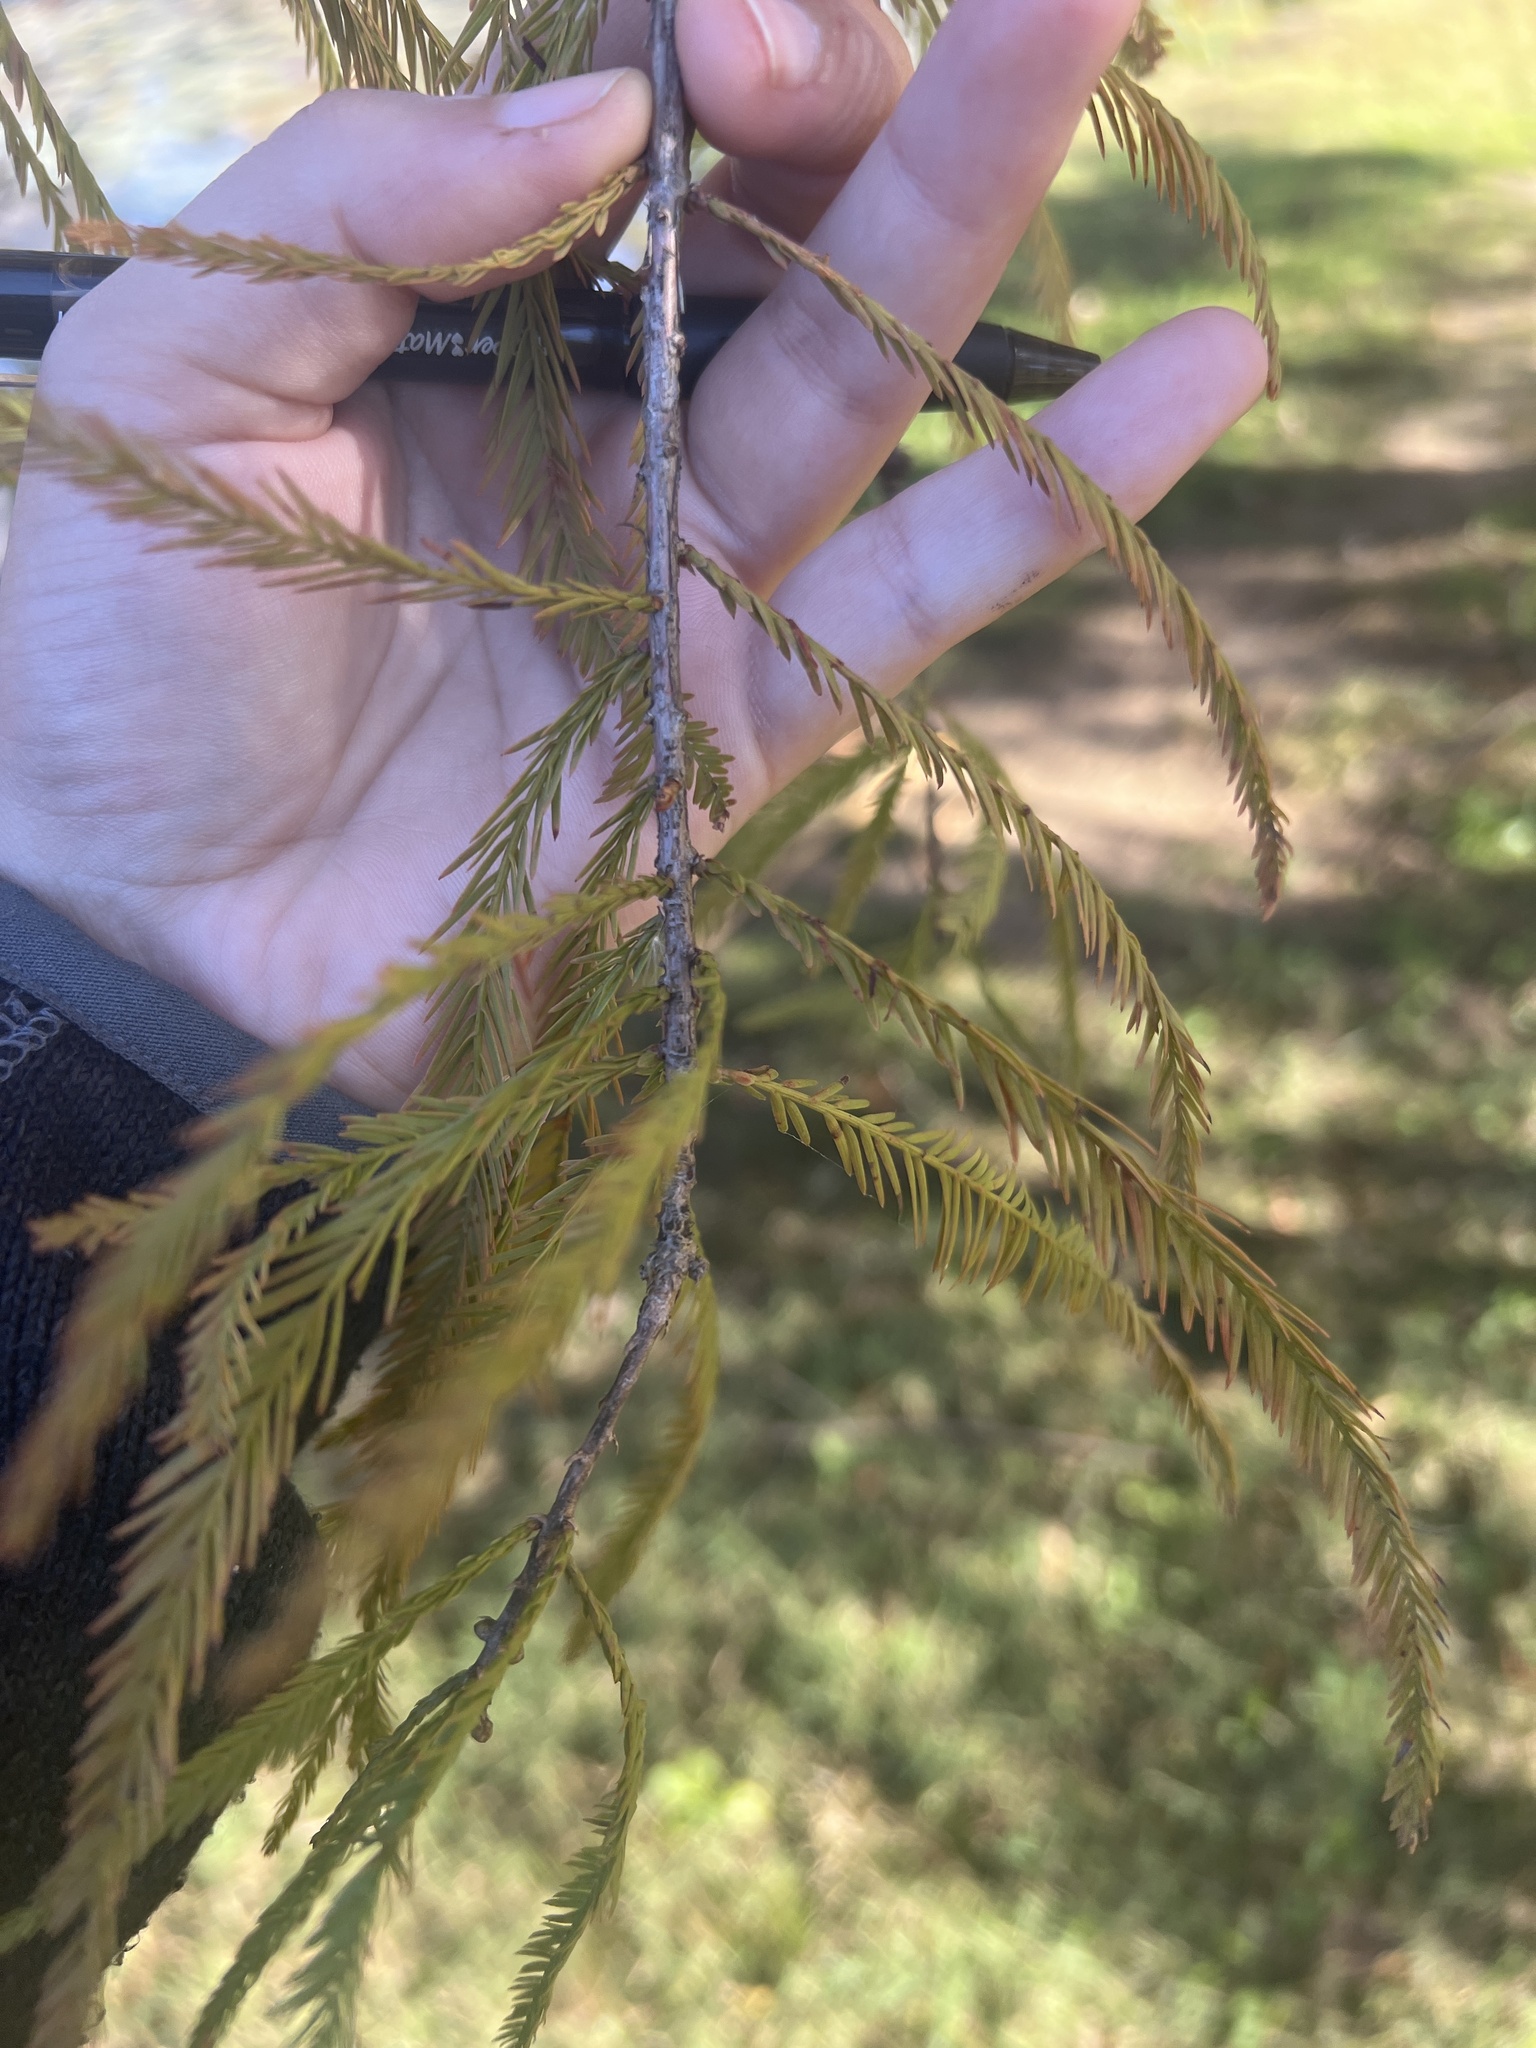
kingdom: Plantae
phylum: Tracheophyta
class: Pinopsida
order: Pinales
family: Cupressaceae
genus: Taxodium
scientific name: Taxodium distichum
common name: Bald cypress
